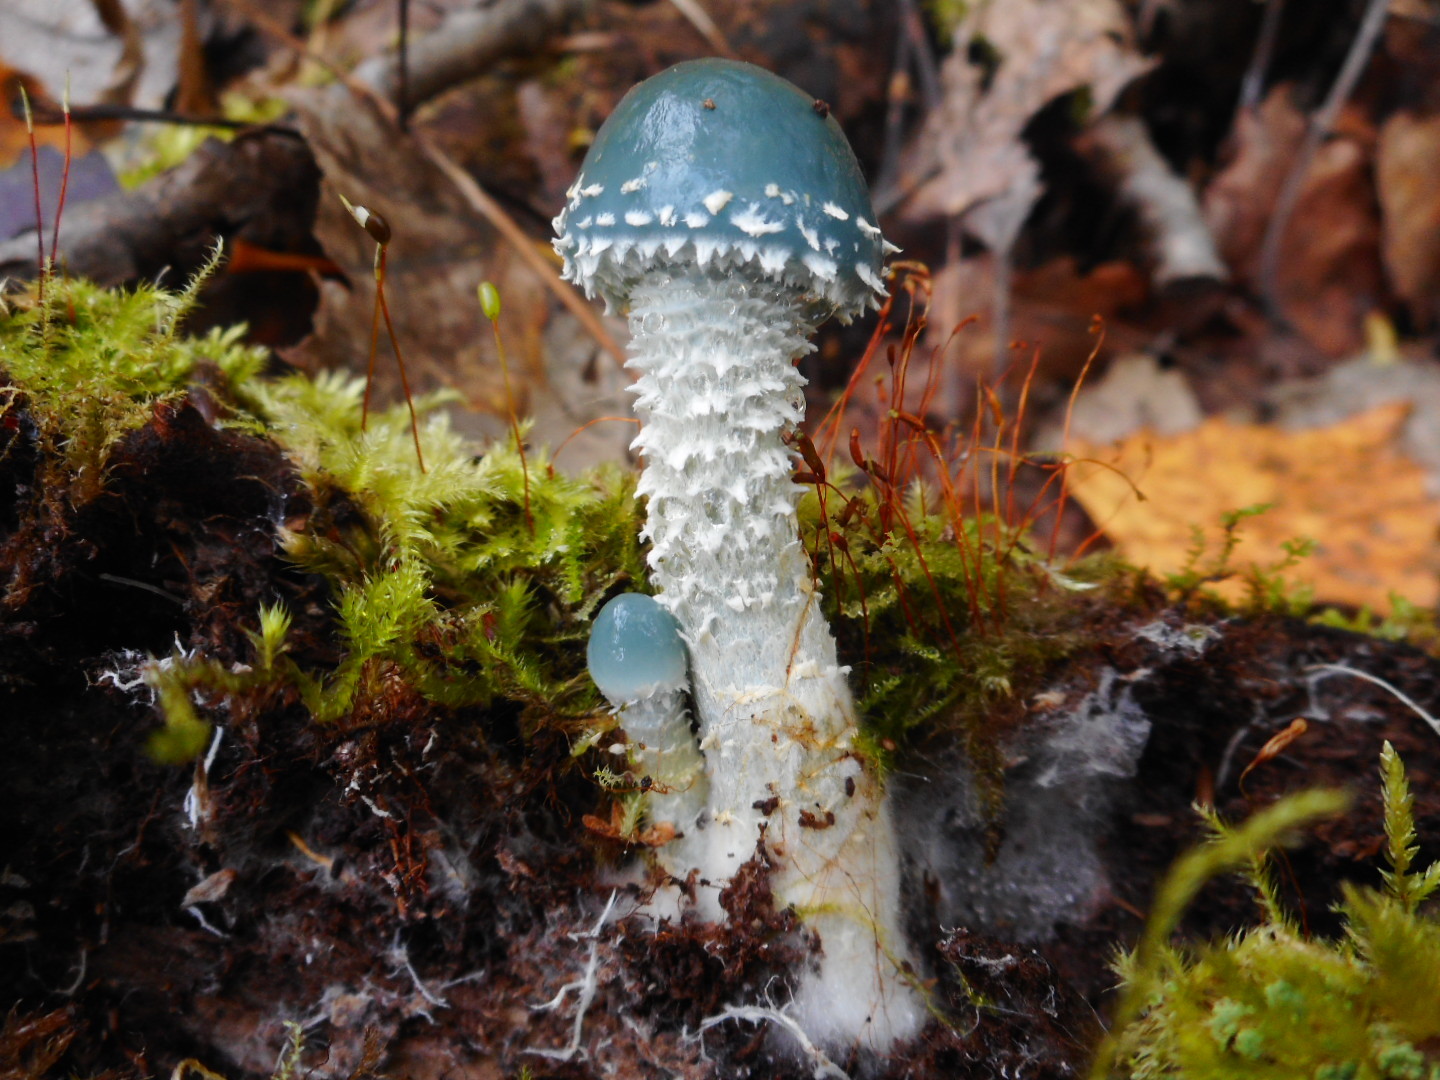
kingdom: Fungi
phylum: Basidiomycota
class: Agaricomycetes
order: Agaricales
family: Strophariaceae
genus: Stropharia
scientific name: Stropharia aeruginosa
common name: Verdigris roundhead
